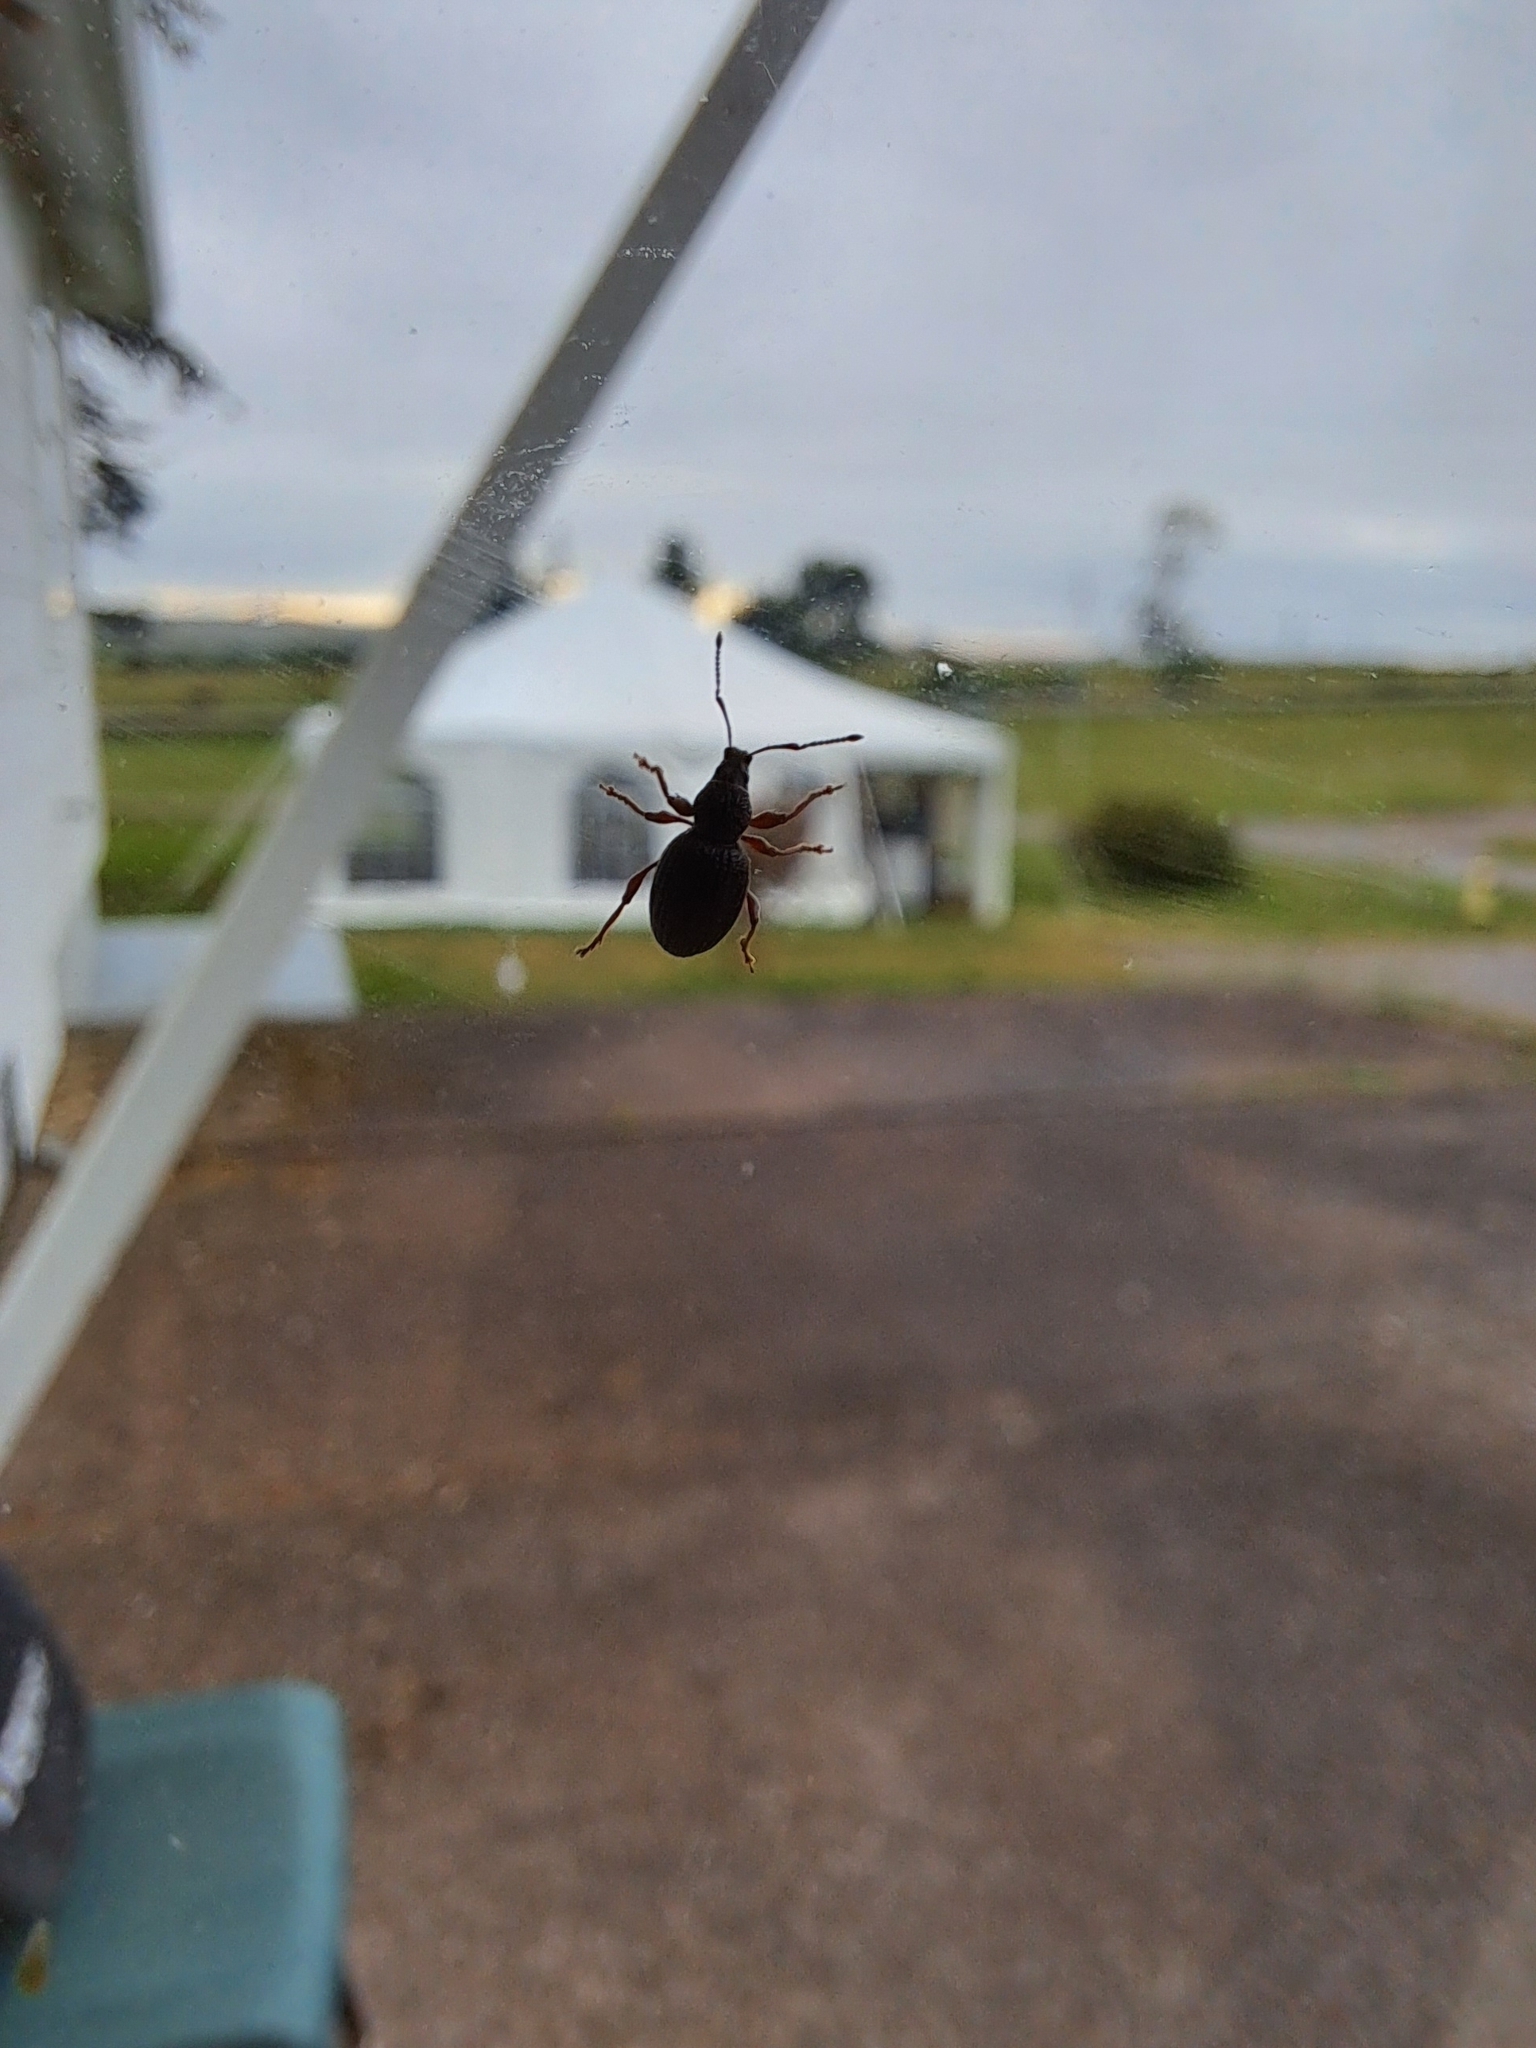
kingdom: Animalia
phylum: Arthropoda
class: Insecta
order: Coleoptera
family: Curculionidae
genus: Otiorhynchus
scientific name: Otiorhynchus ovatus
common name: Strawberry root weevil
